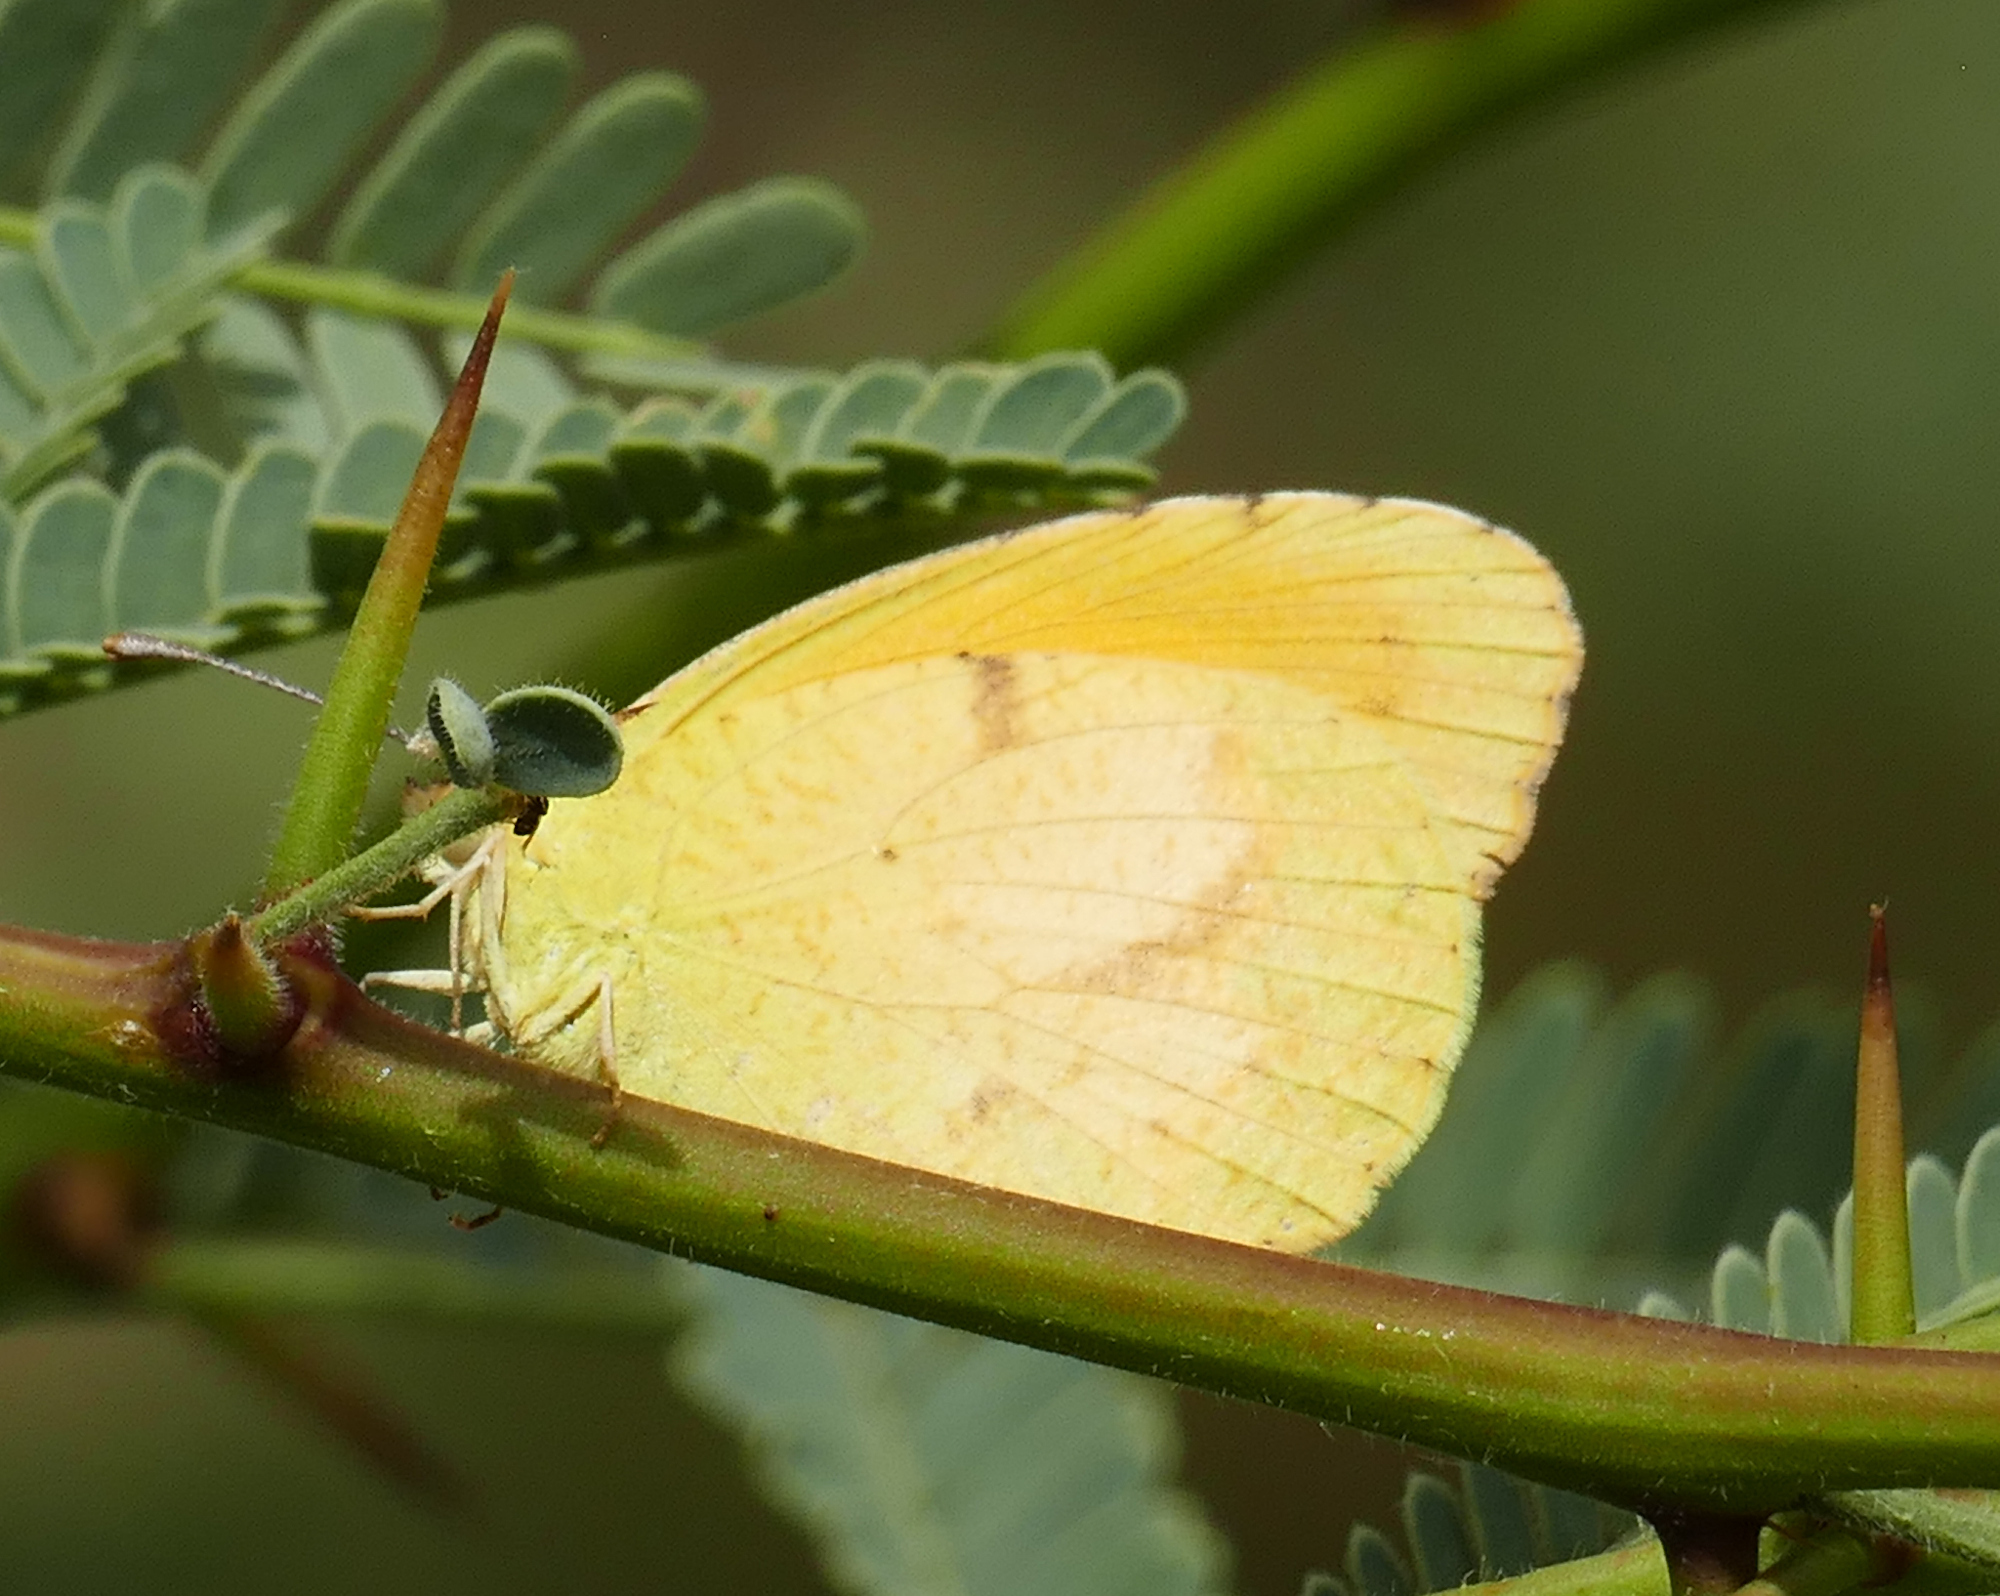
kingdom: Animalia
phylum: Arthropoda
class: Insecta
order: Lepidoptera
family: Pieridae
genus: Abaeis
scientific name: Abaeis nicippe
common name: Sleepy orange
